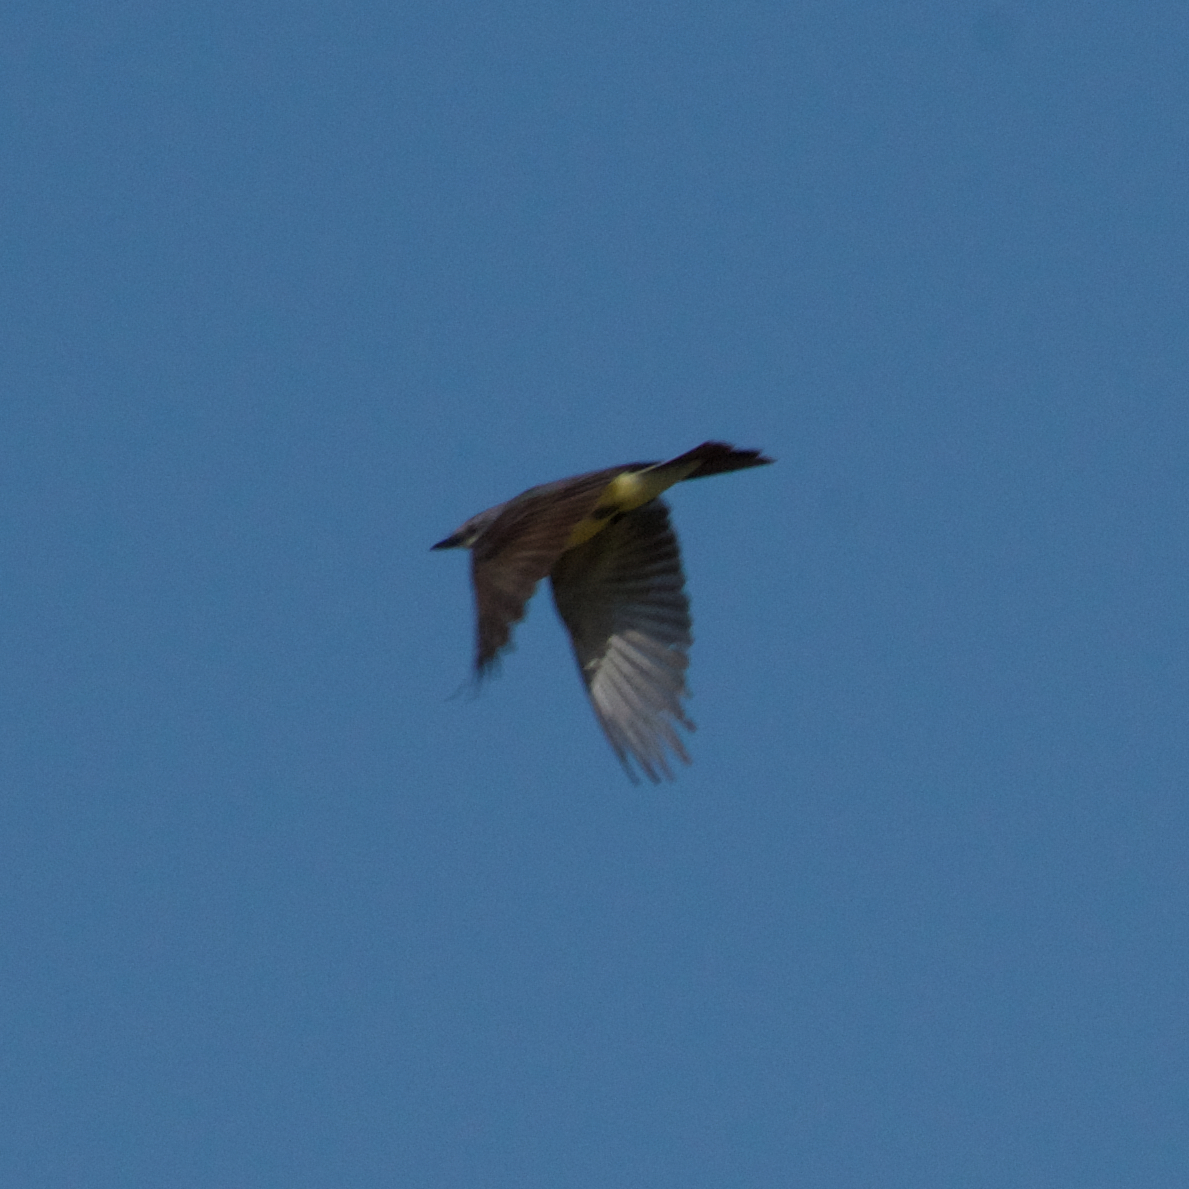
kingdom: Animalia
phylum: Chordata
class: Aves
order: Passeriformes
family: Tyrannidae
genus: Tyrannus
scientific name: Tyrannus verticalis
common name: Western kingbird
